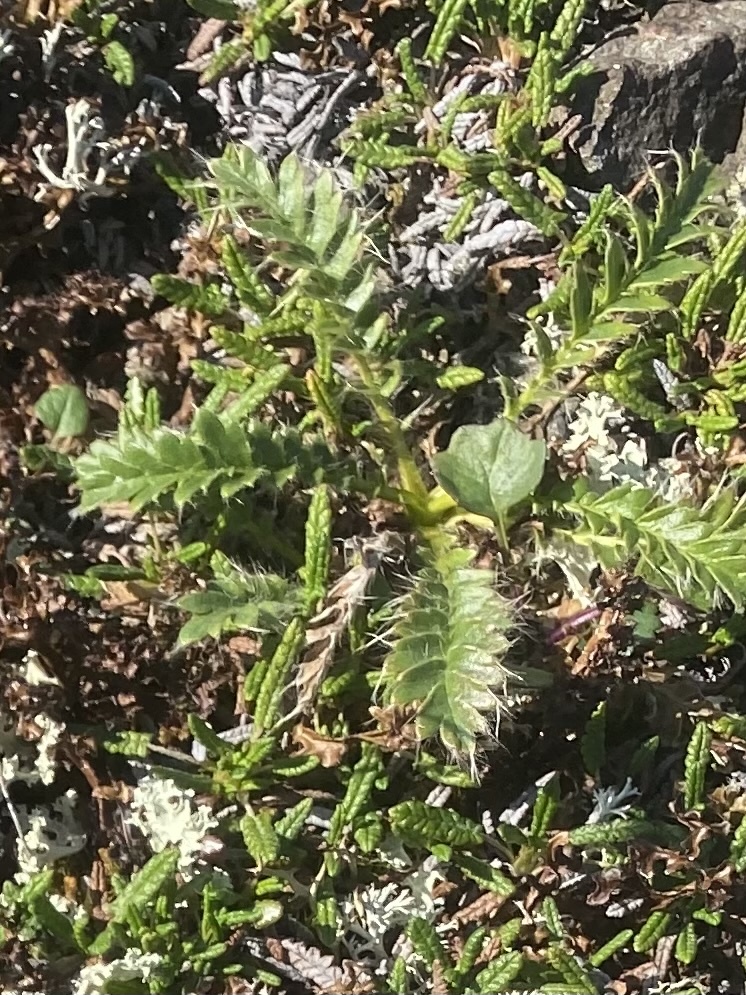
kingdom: Plantae
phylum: Tracheophyta
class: Magnoliopsida
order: Rosales
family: Rosaceae
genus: Geum
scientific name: Geum glaciale
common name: Glacier avens
